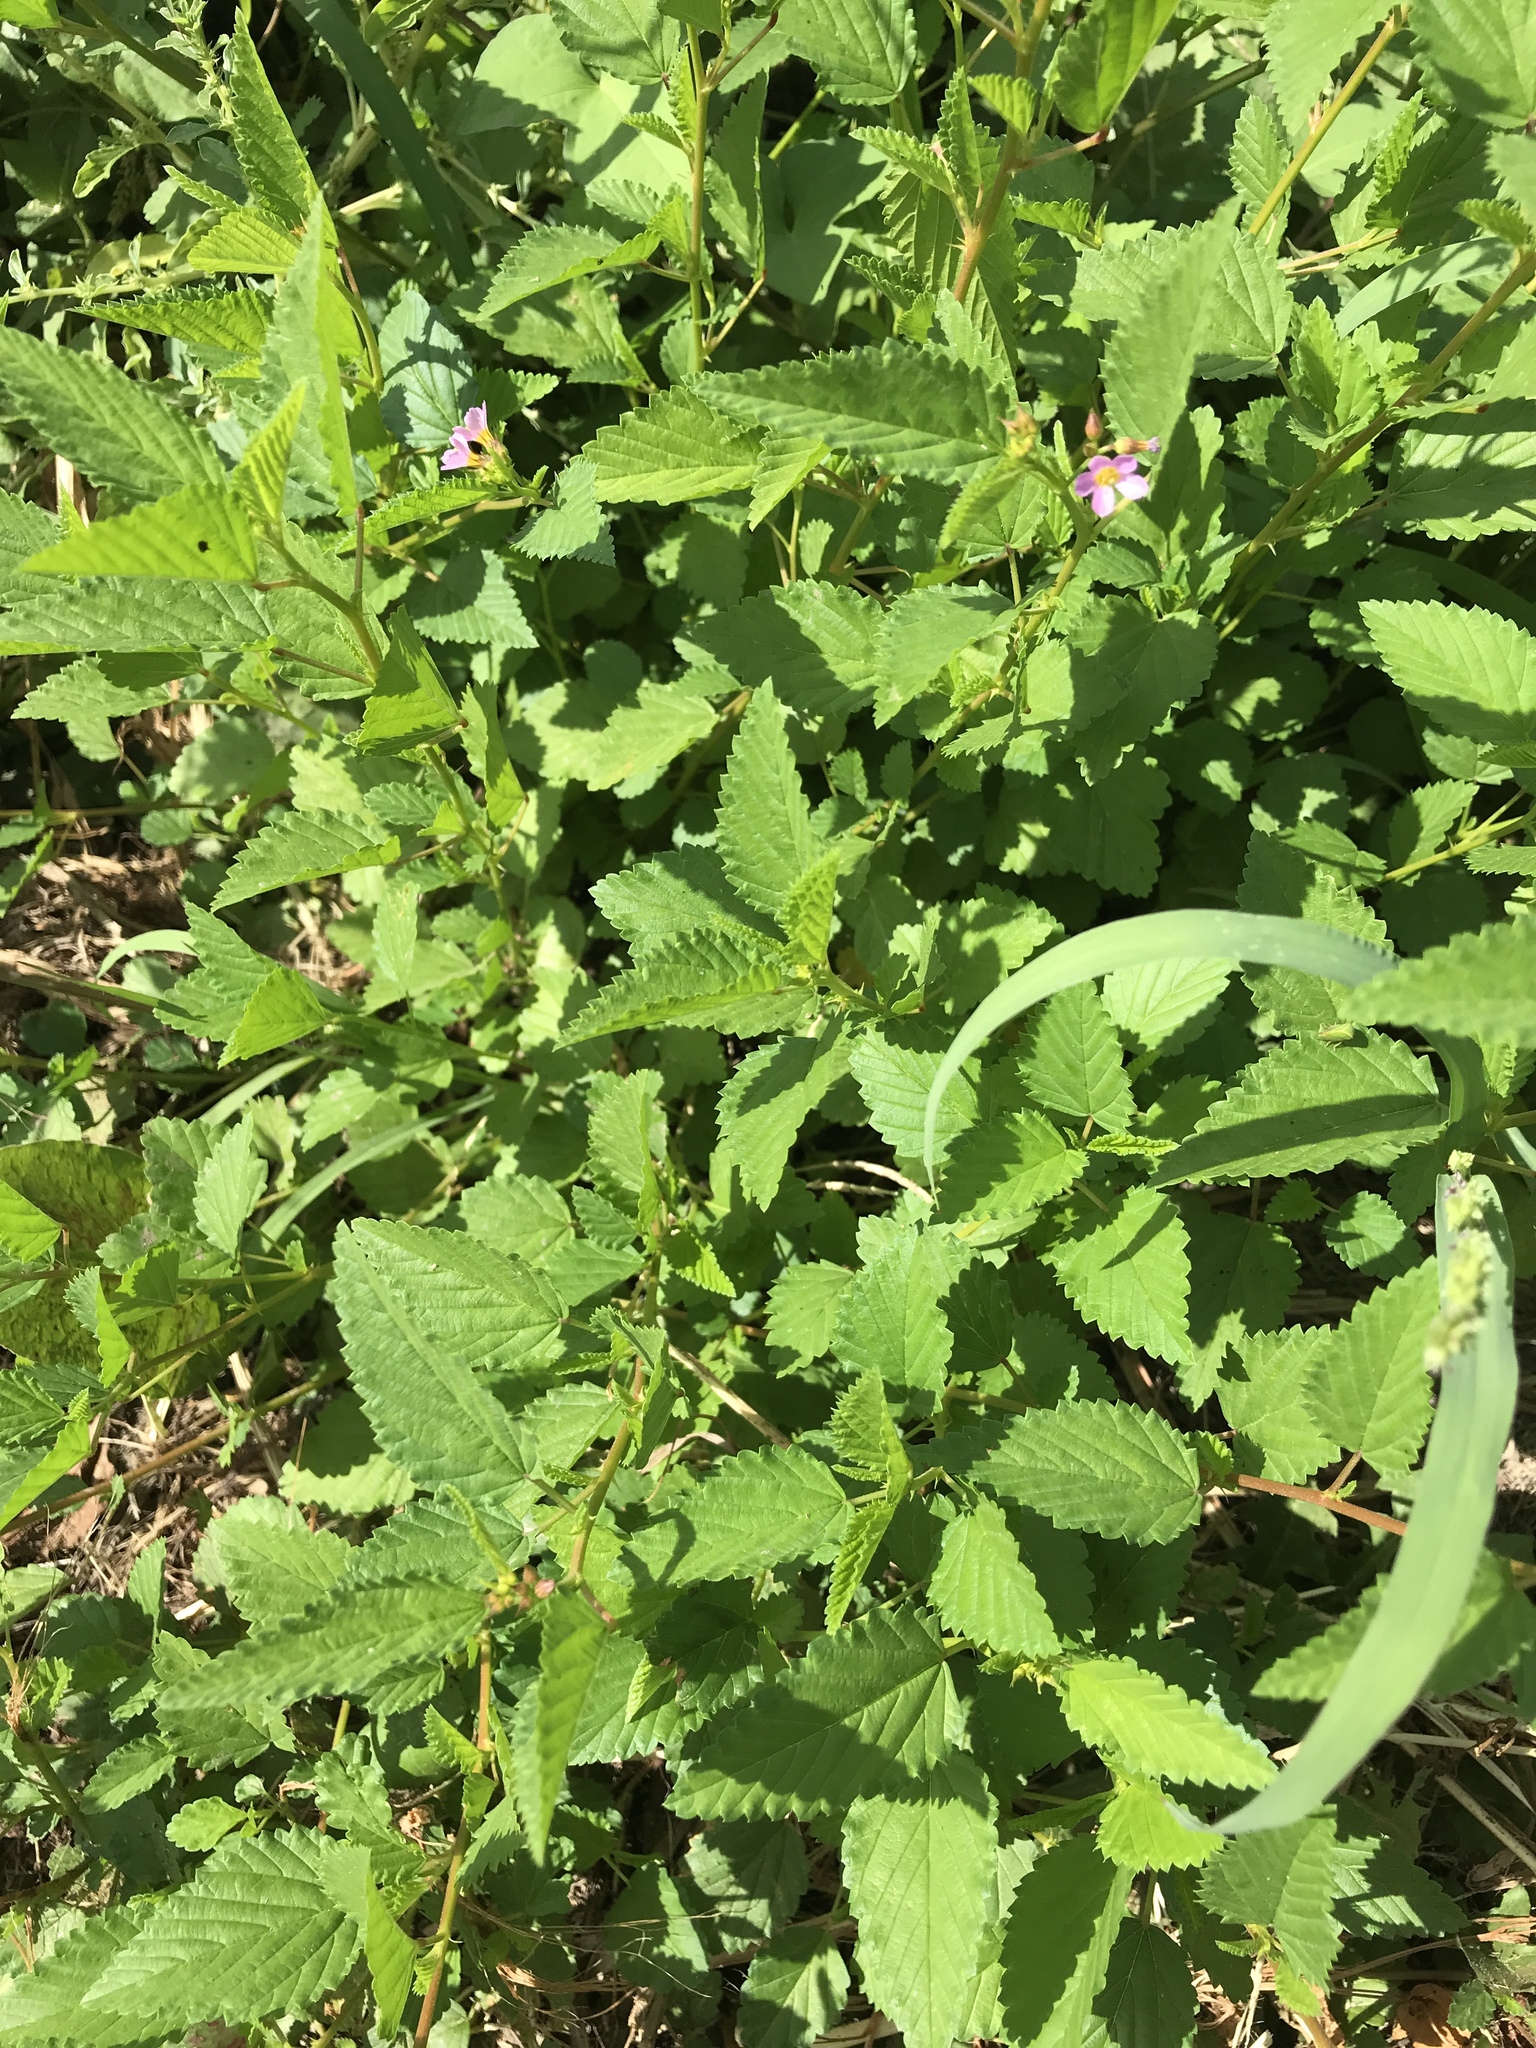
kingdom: Plantae
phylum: Tracheophyta
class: Magnoliopsida
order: Malvales
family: Malvaceae
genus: Melochia
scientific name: Melochia pyramidata
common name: Pyramidflower
